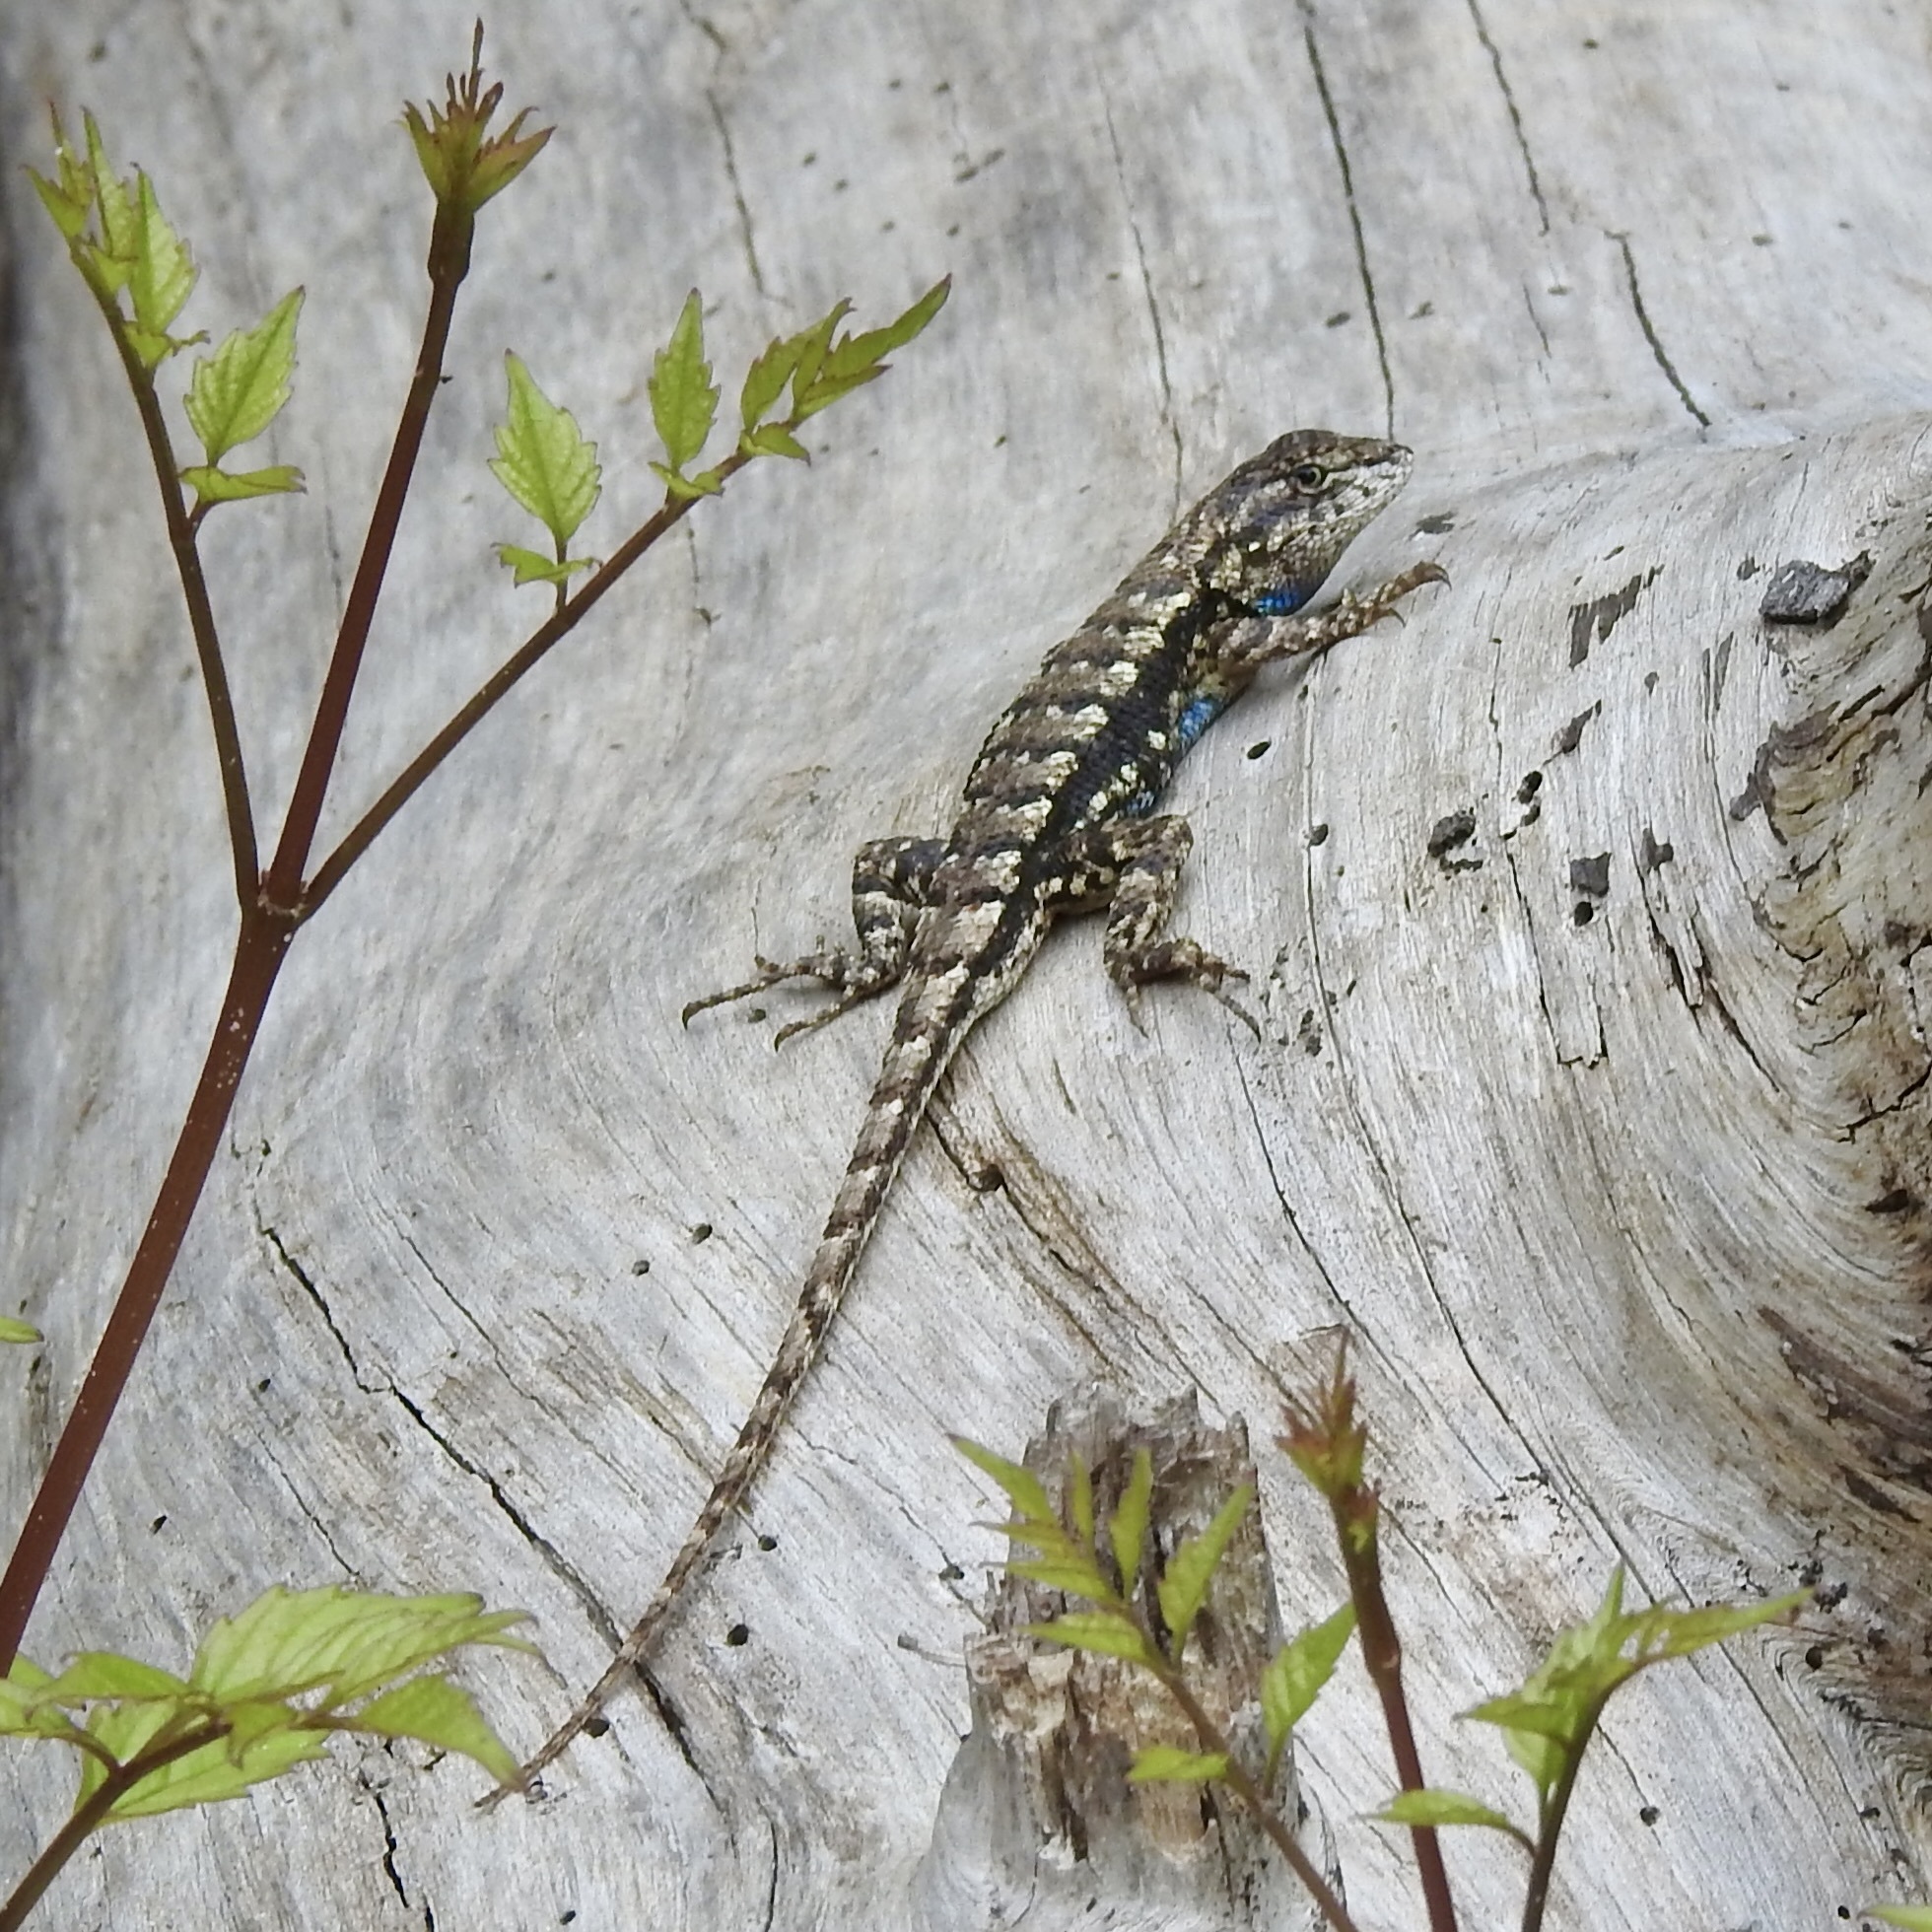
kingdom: Animalia
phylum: Chordata
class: Squamata
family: Phrynosomatidae
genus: Sceloporus
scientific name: Sceloporus consobrinus
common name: Southern prairie lizard
